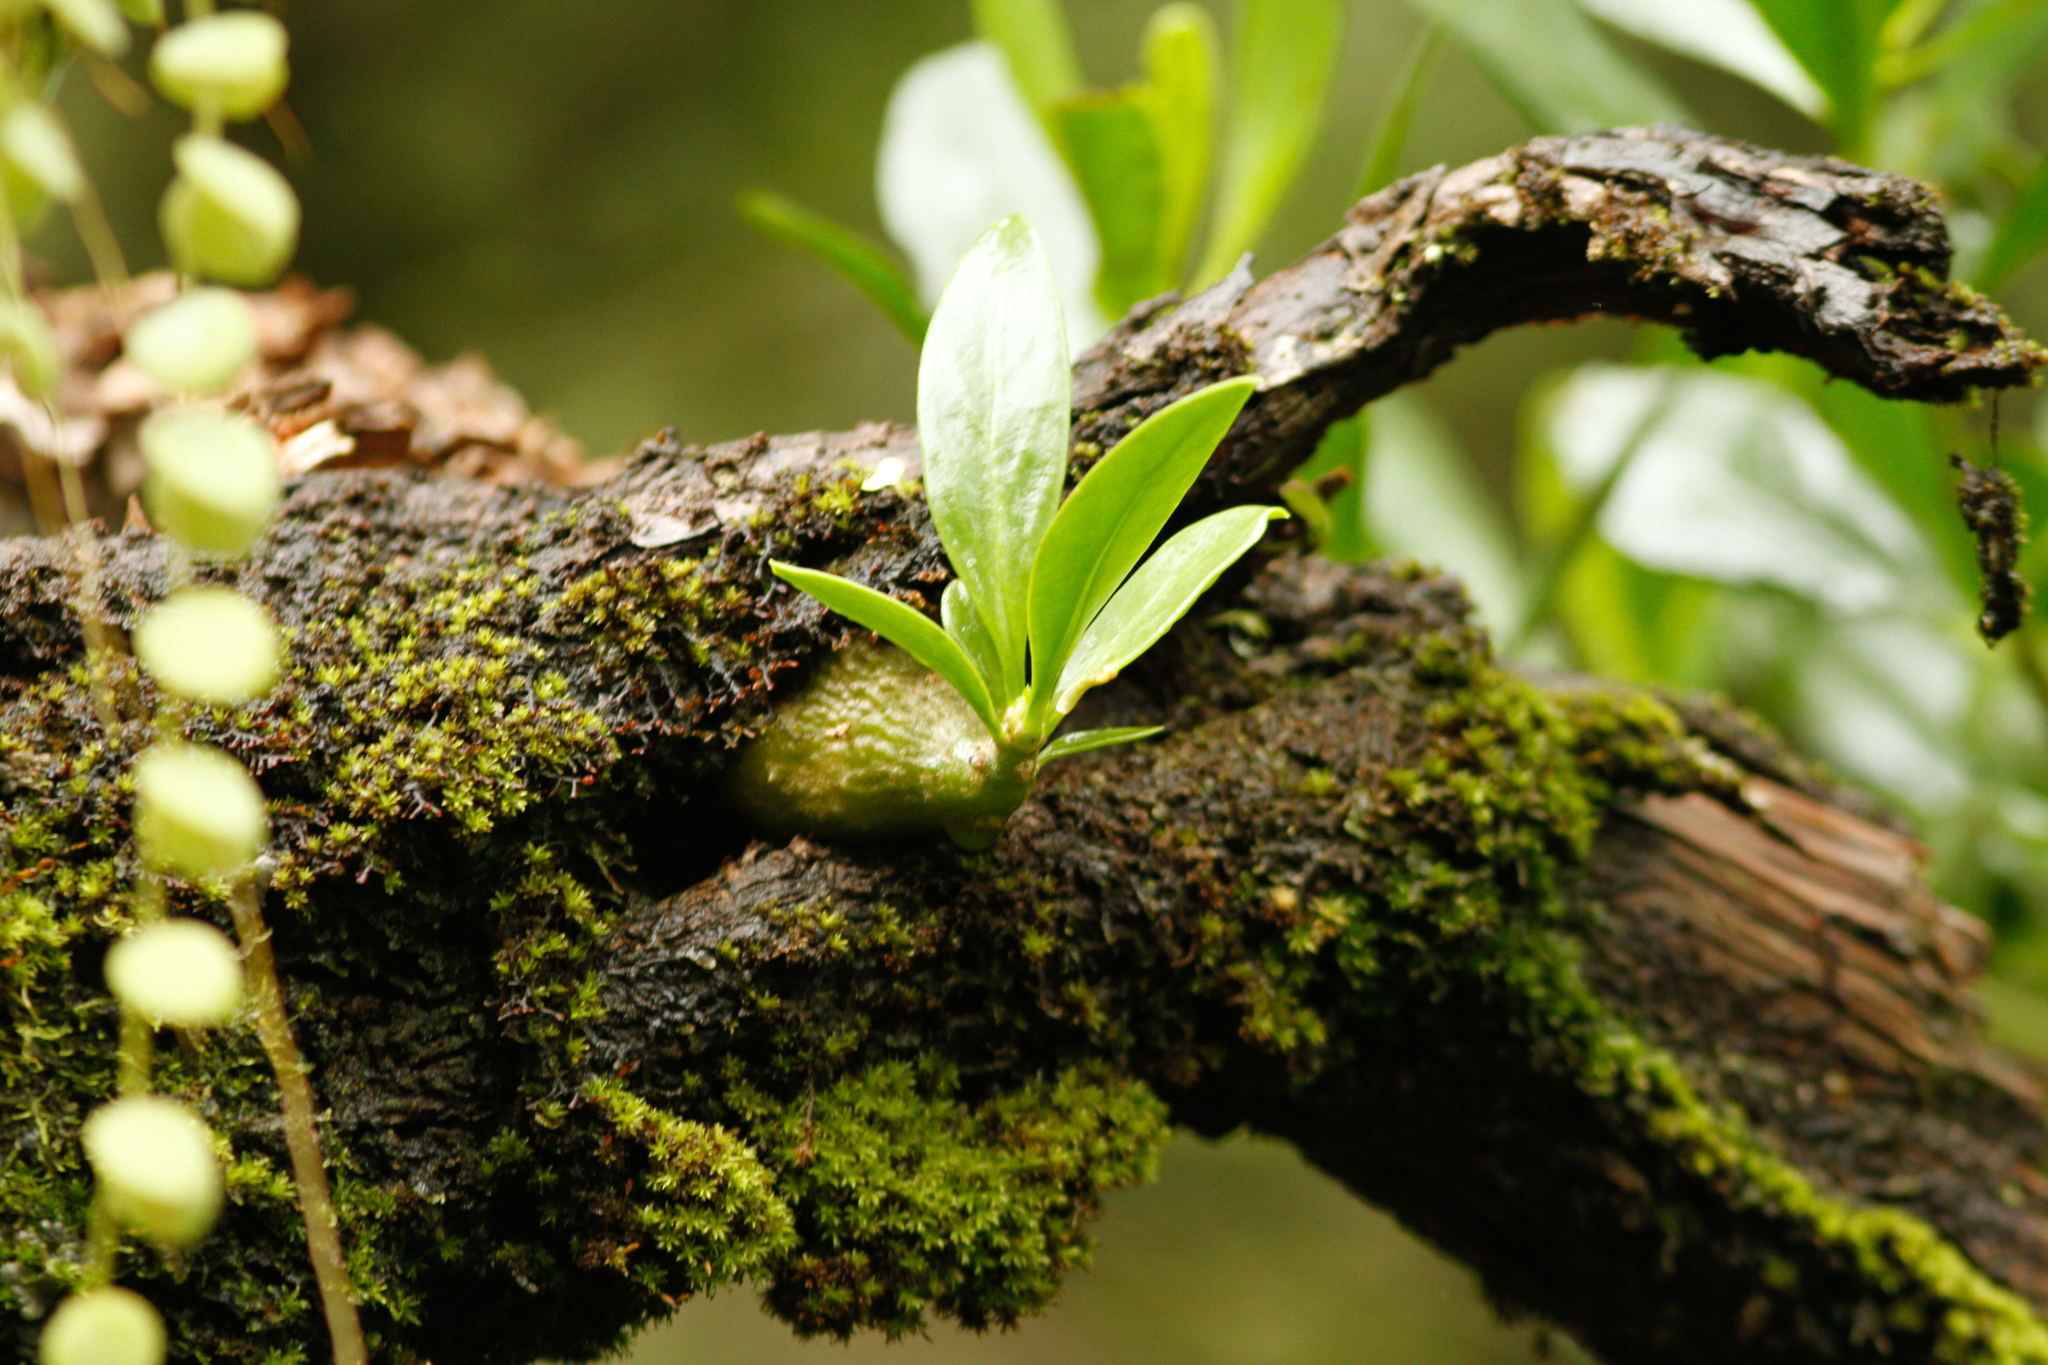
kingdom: Plantae
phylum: Tracheophyta
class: Magnoliopsida
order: Gentianales
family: Rubiaceae
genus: Myrmecodia
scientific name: Myrmecodia beccarii
